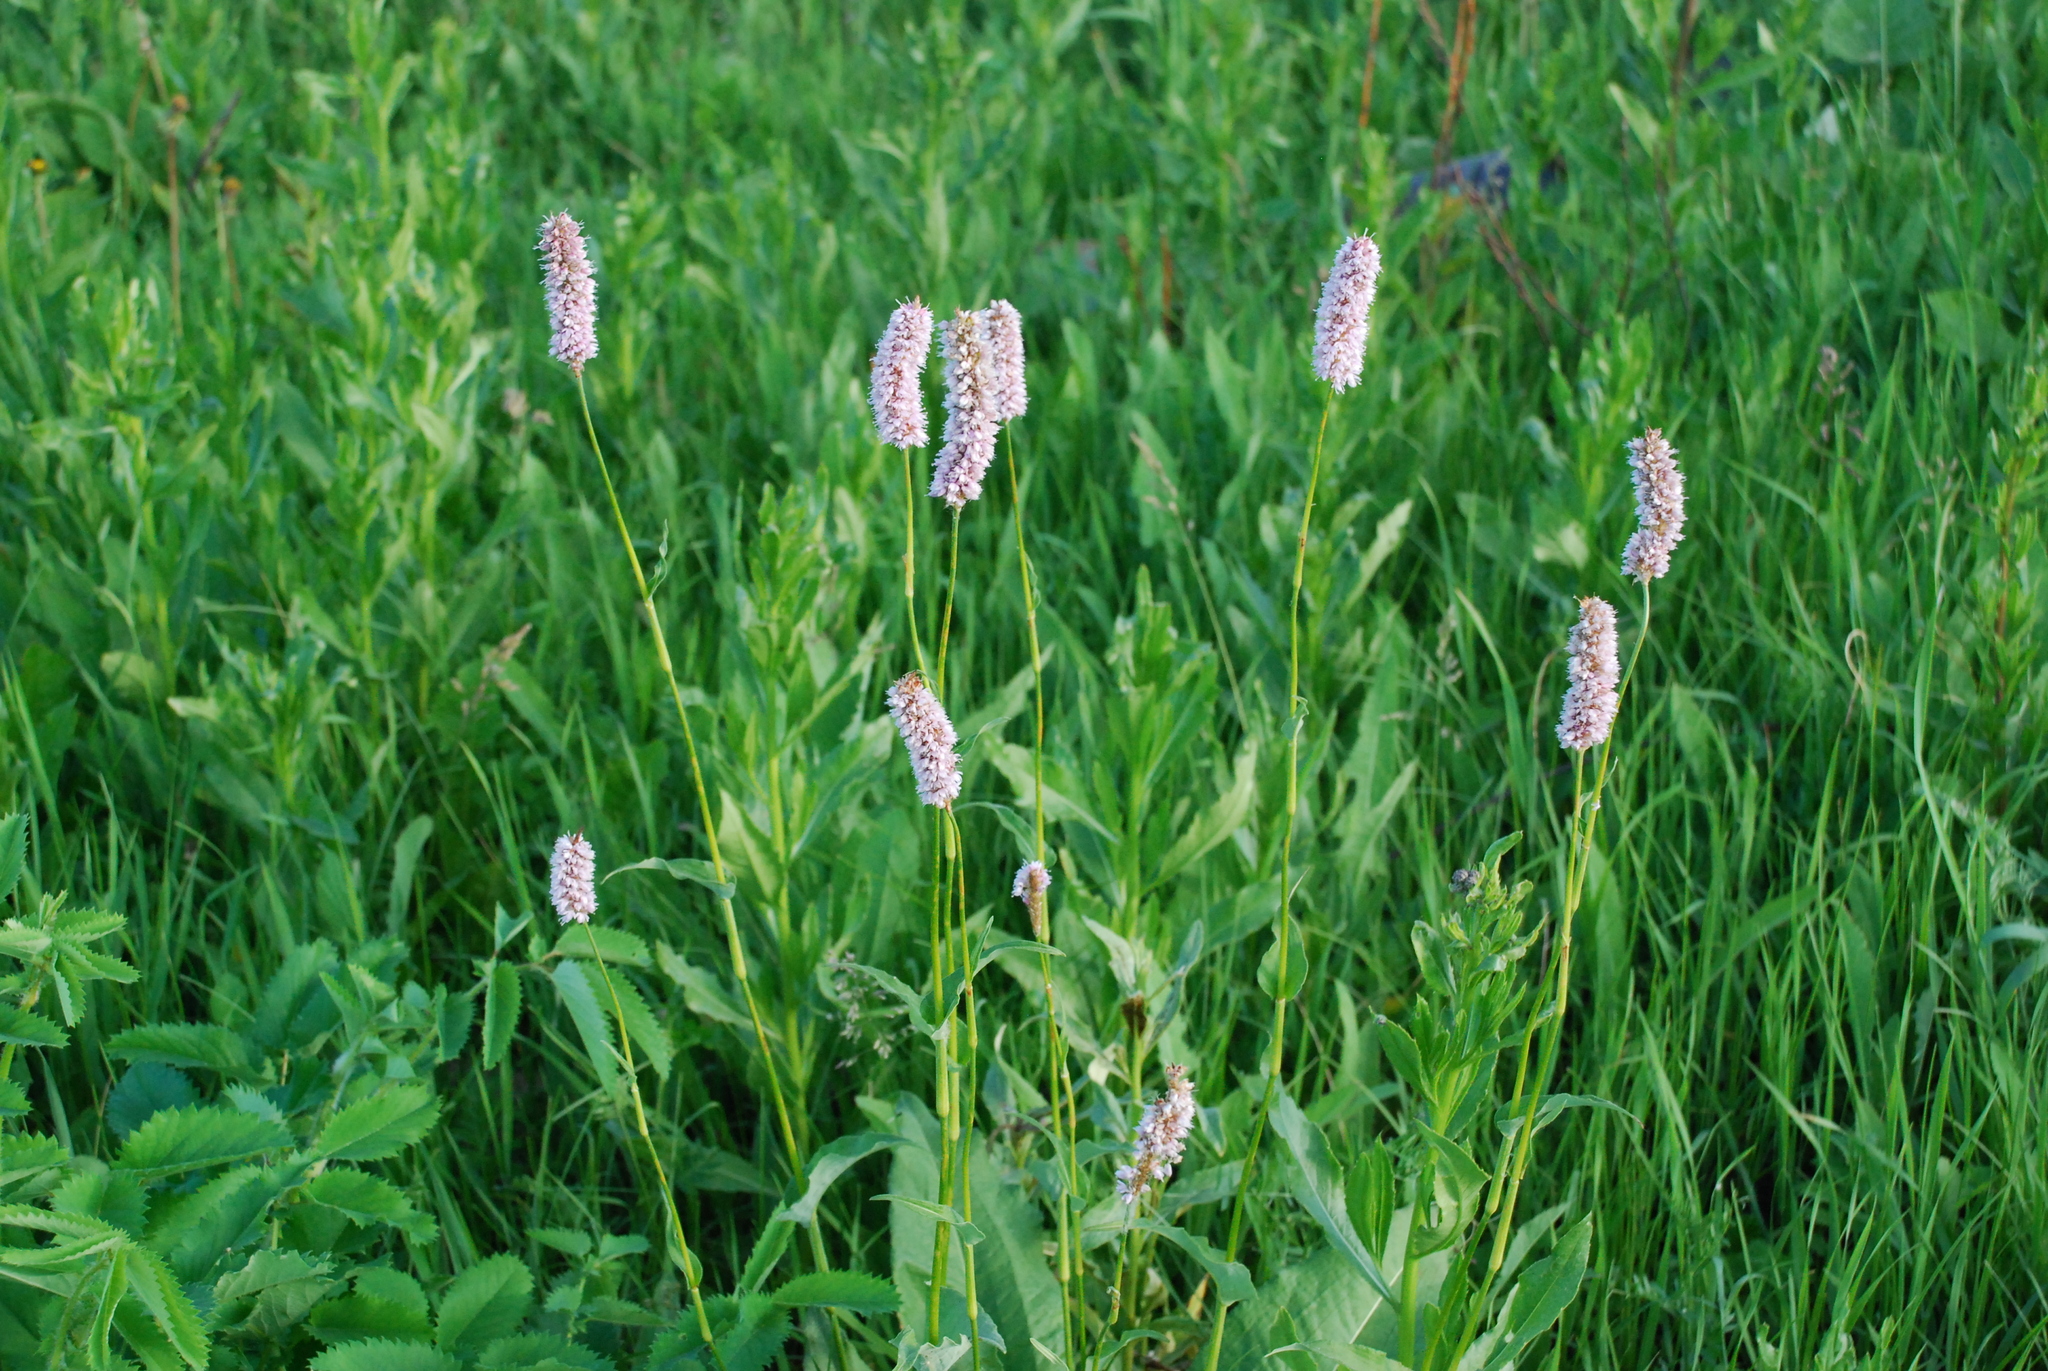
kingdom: Plantae
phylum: Tracheophyta
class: Magnoliopsida
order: Caryophyllales
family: Polygonaceae
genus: Bistorta
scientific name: Bistorta officinalis
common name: Common bistort
